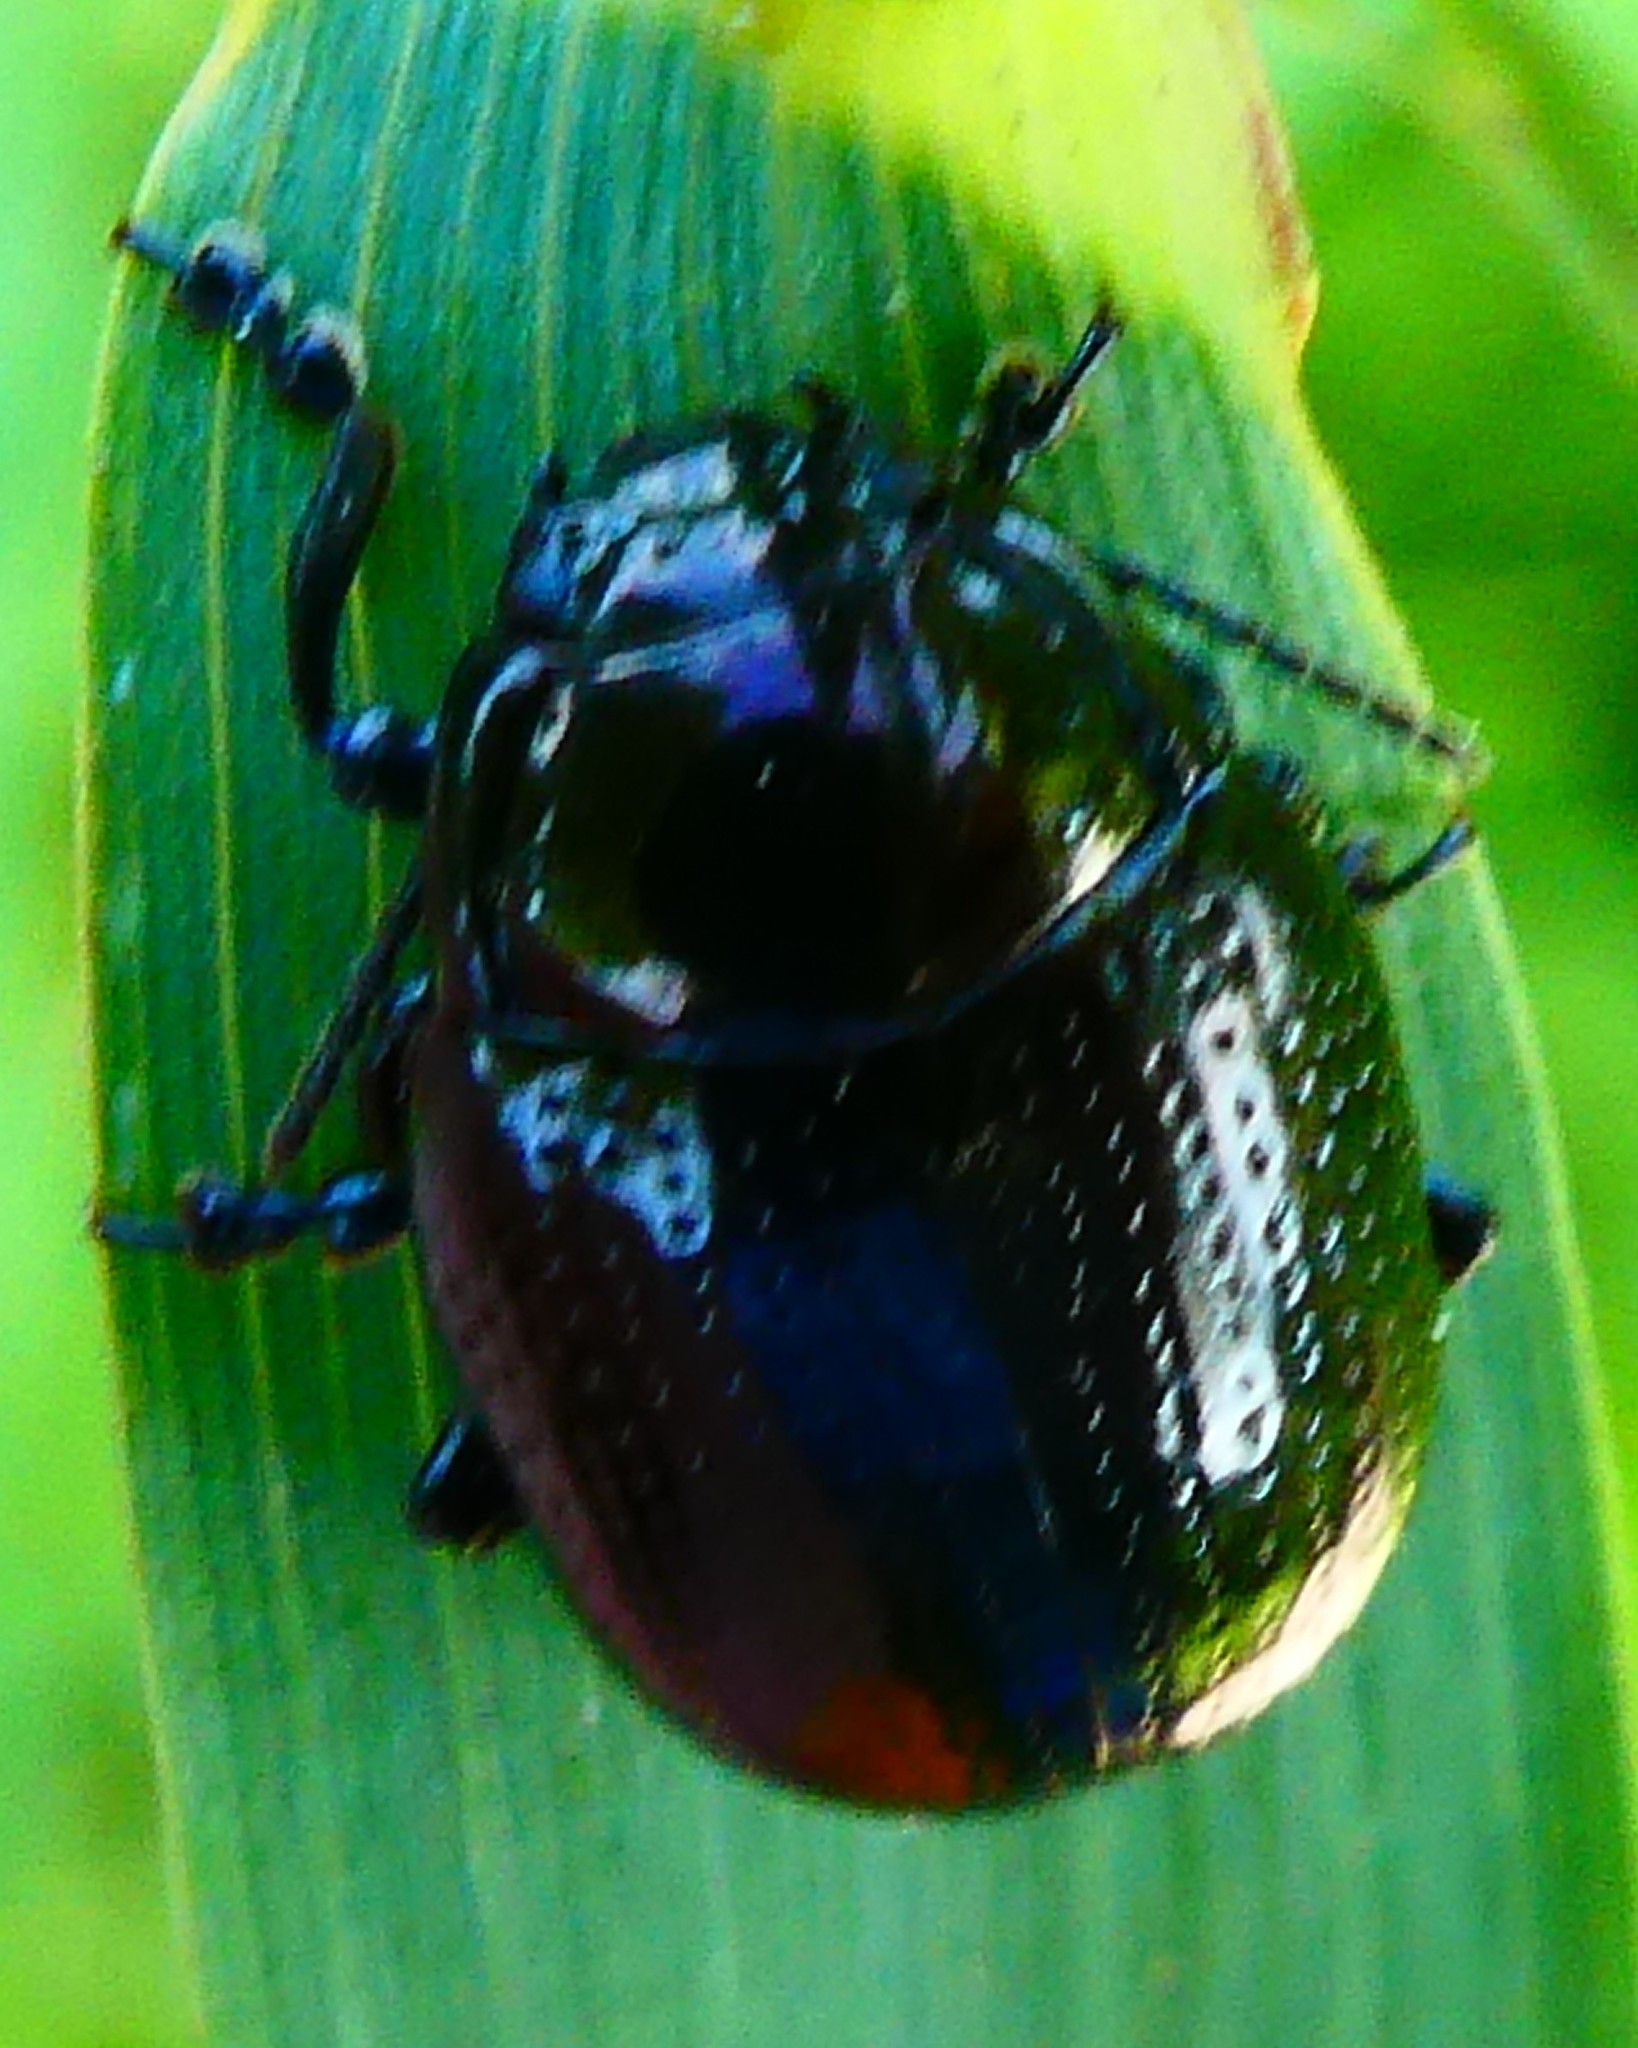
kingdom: Animalia
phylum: Arthropoda
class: Insecta
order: Coleoptera
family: Chrysomelidae
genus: Chrysolina
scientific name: Chrysolina oricalcia
